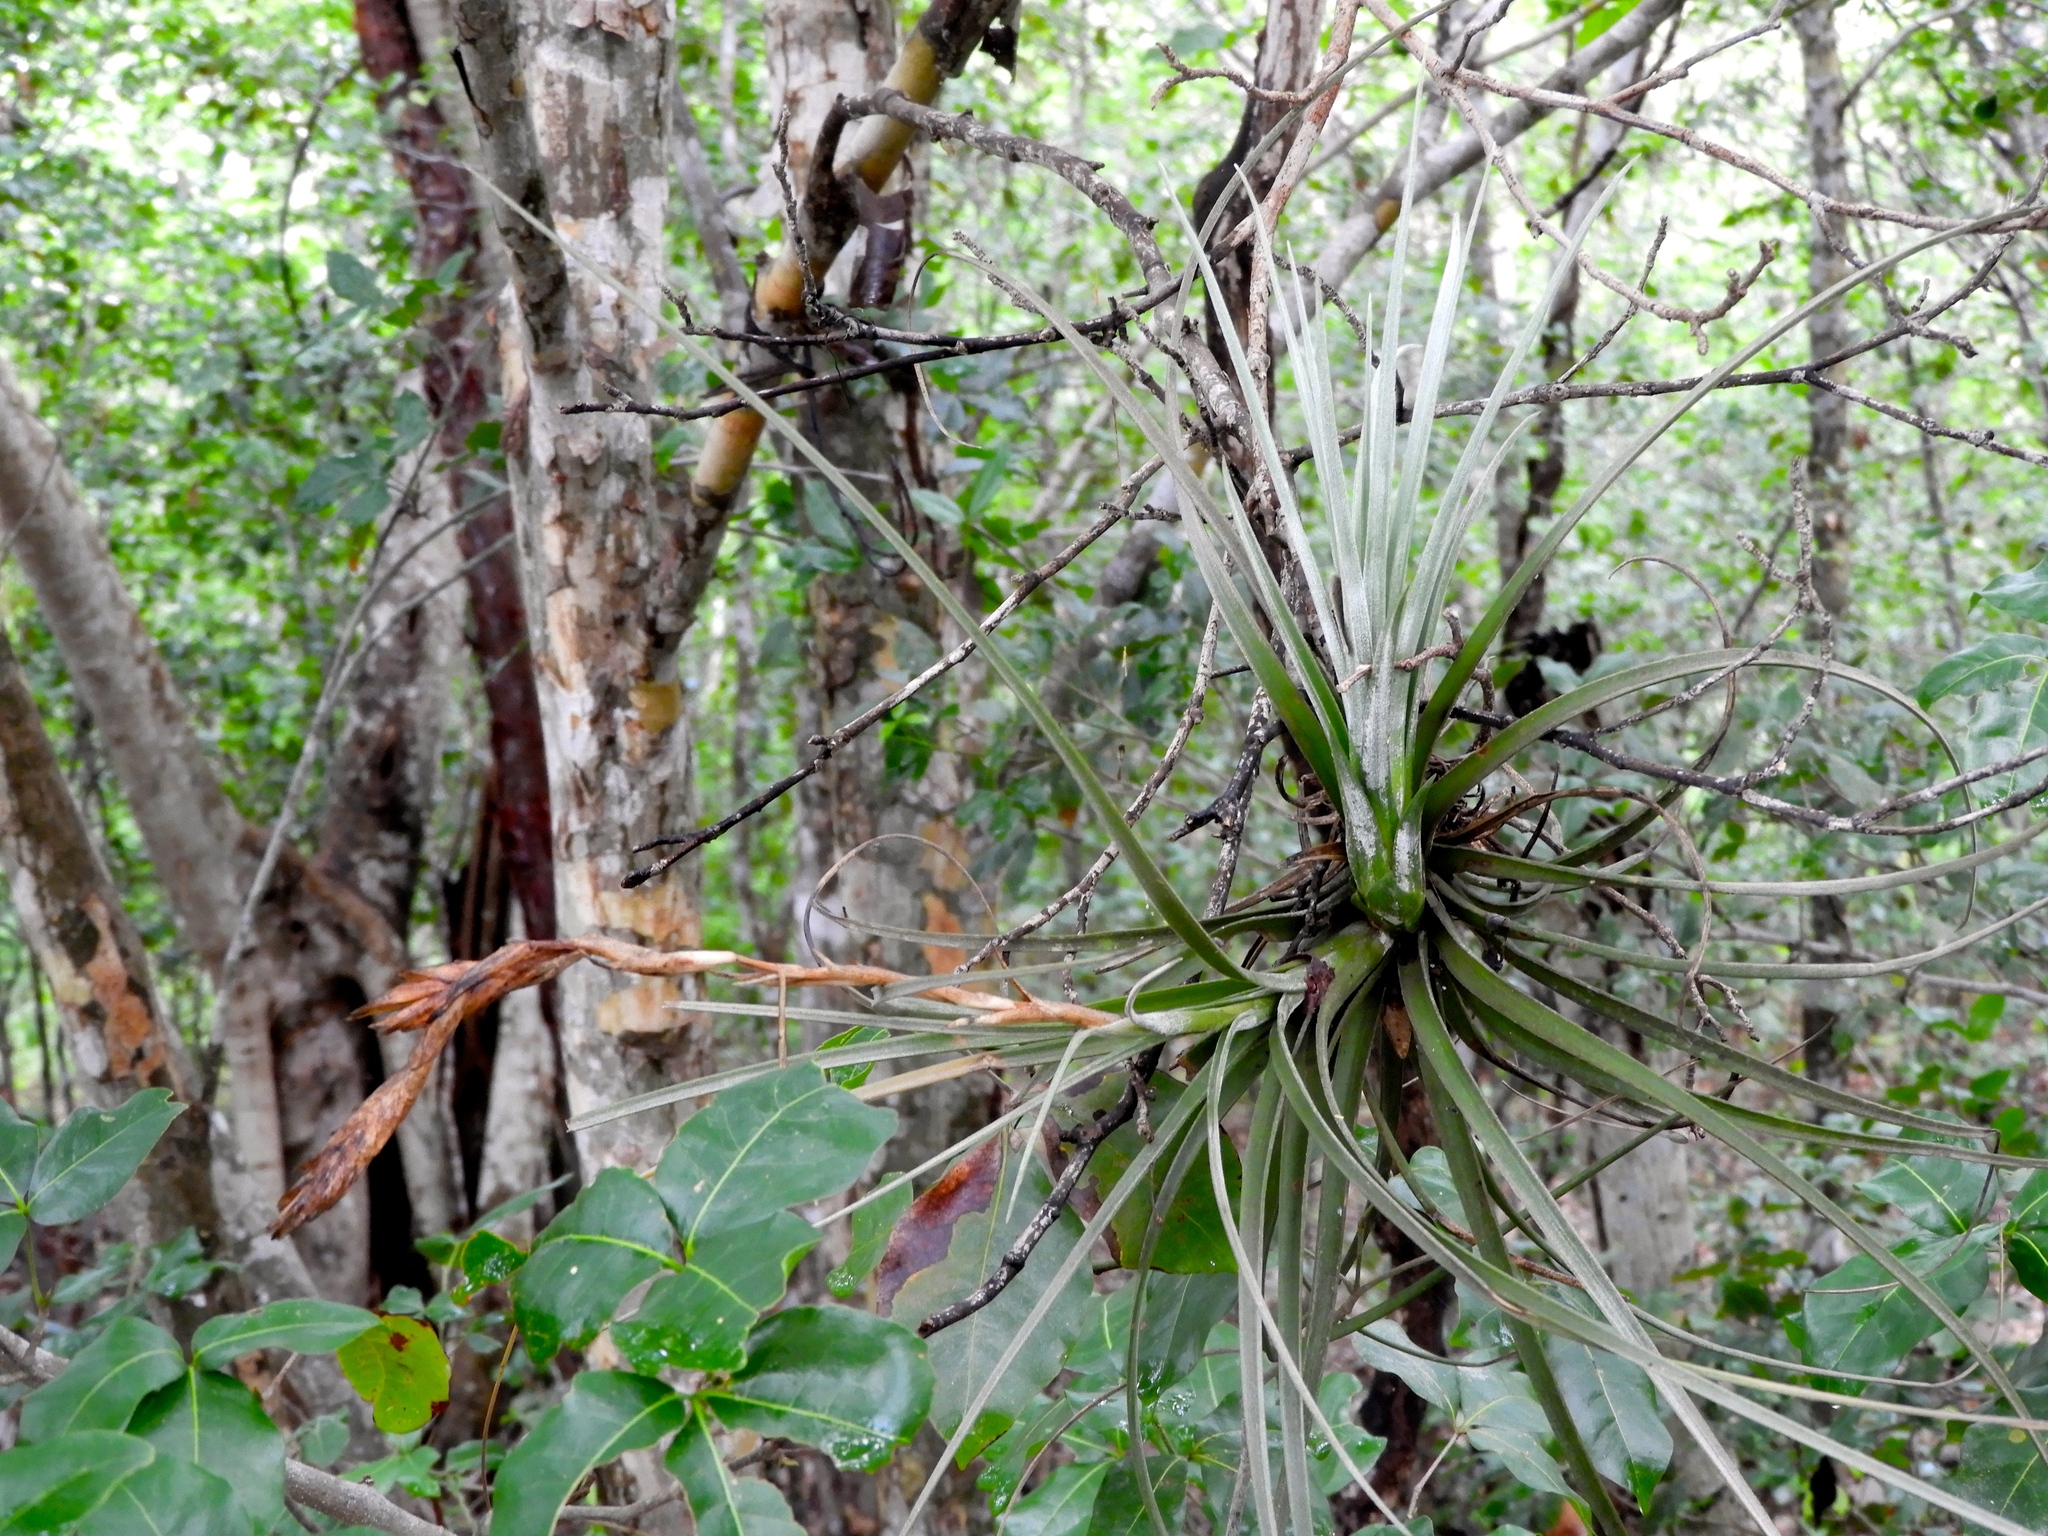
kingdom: Plantae
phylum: Tracheophyta
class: Liliopsida
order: Poales
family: Bromeliaceae
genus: Tillandsia
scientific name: Tillandsia exserta
